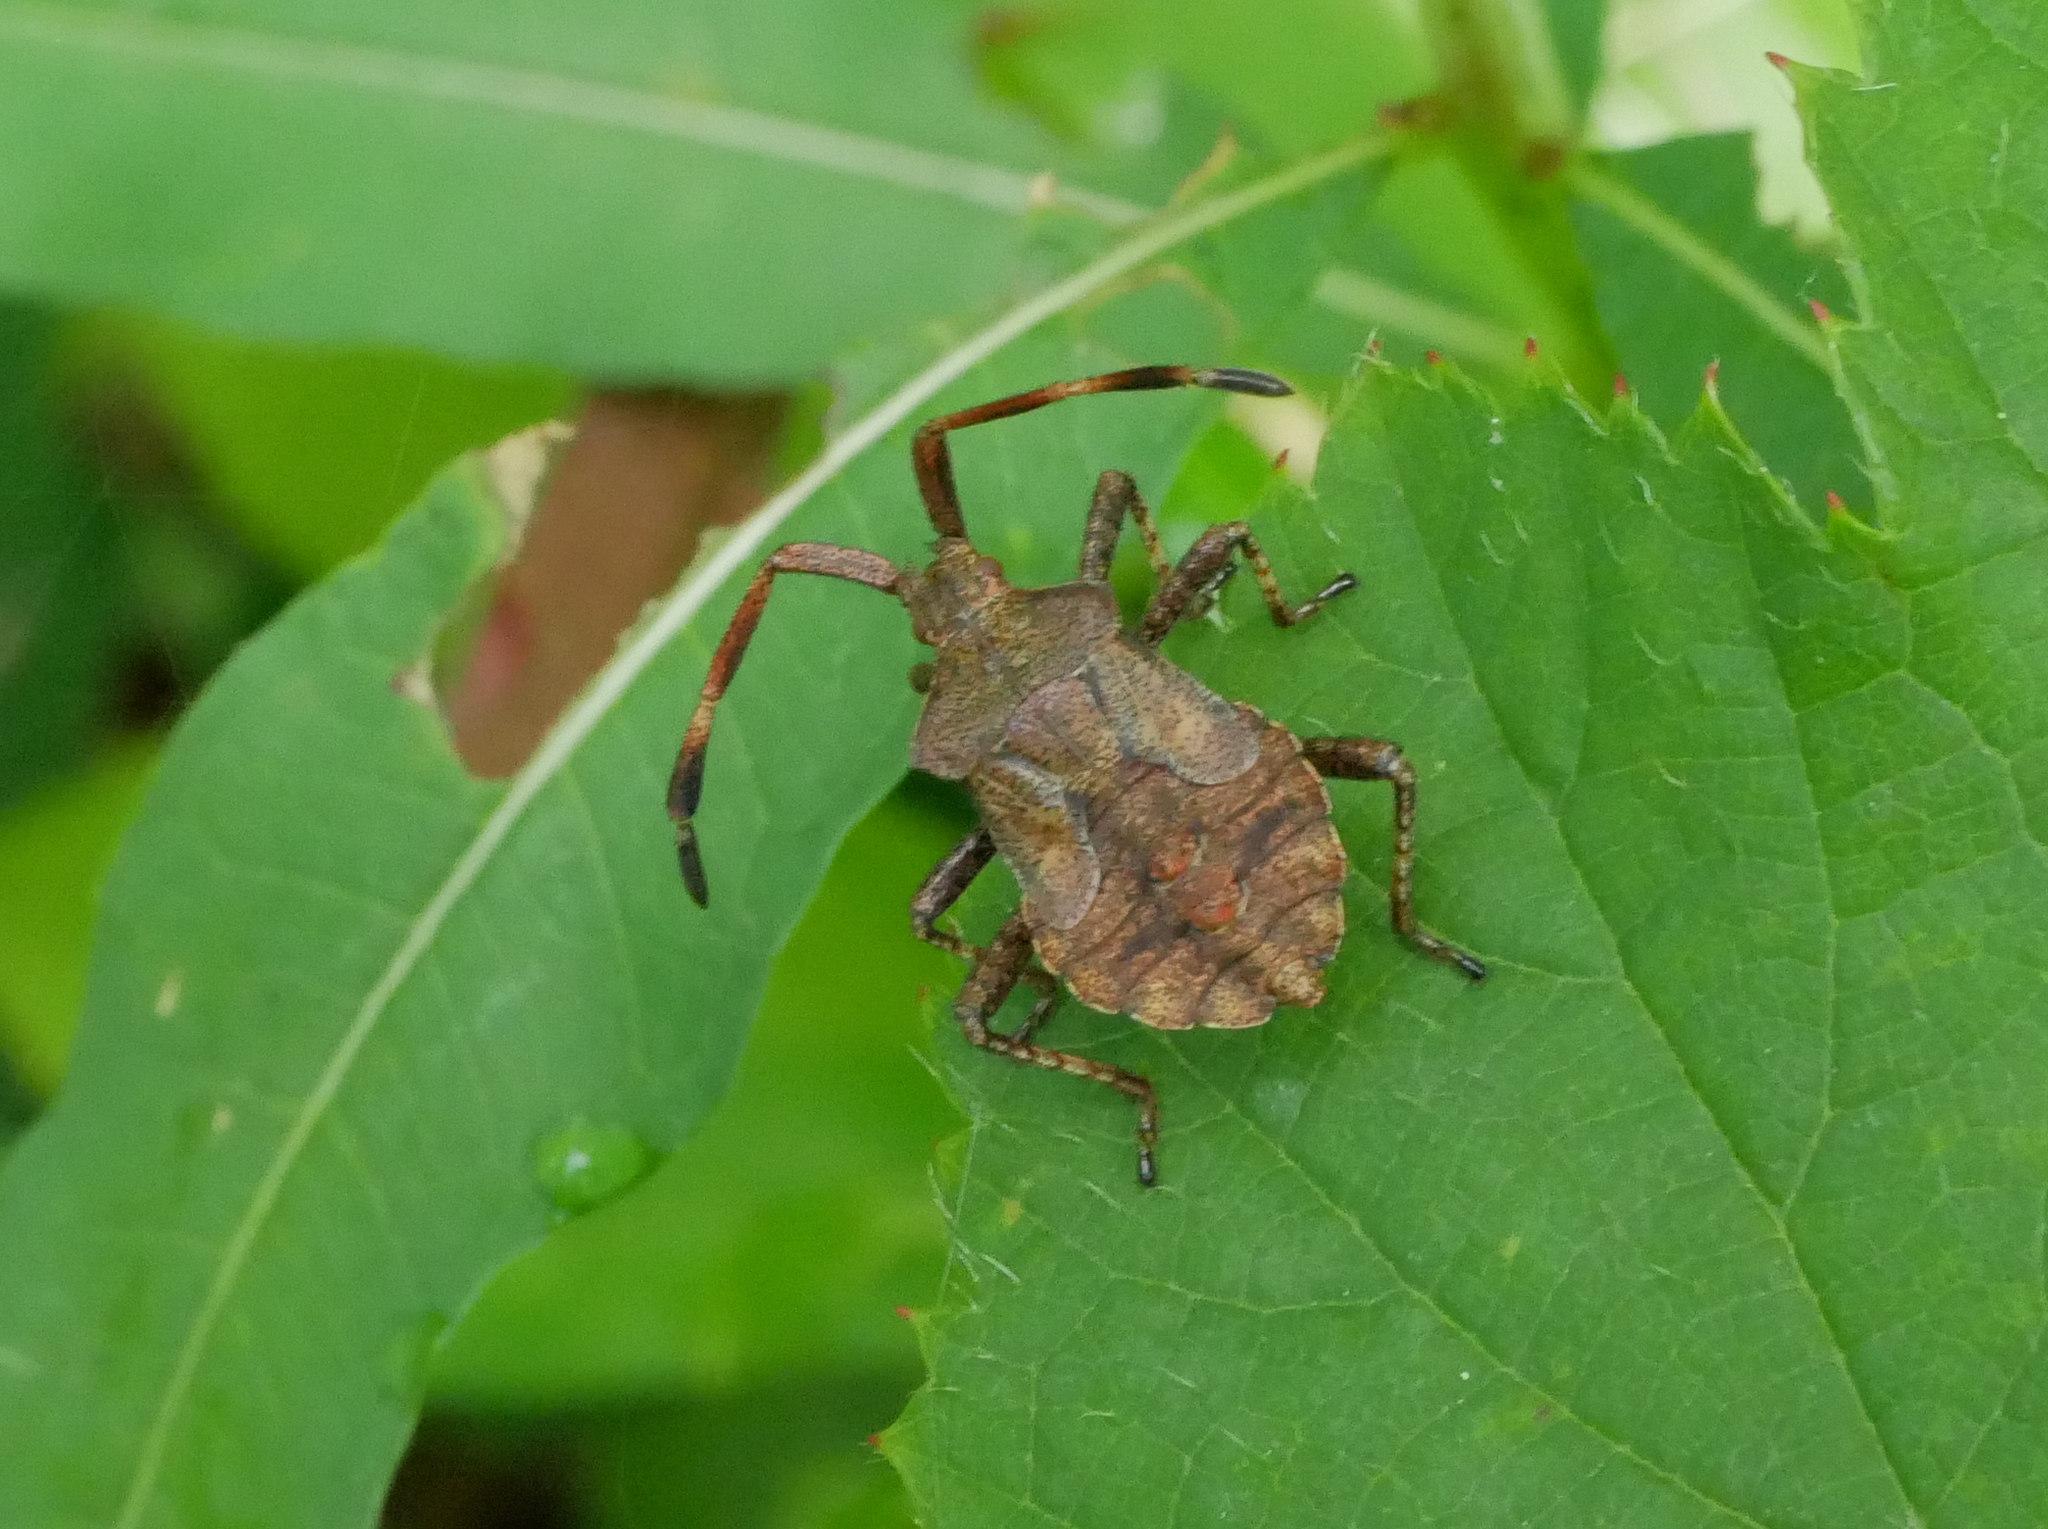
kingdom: Animalia
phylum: Arthropoda
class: Insecta
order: Hemiptera
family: Coreidae
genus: Coreus
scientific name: Coreus marginatus
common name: Dock bug
